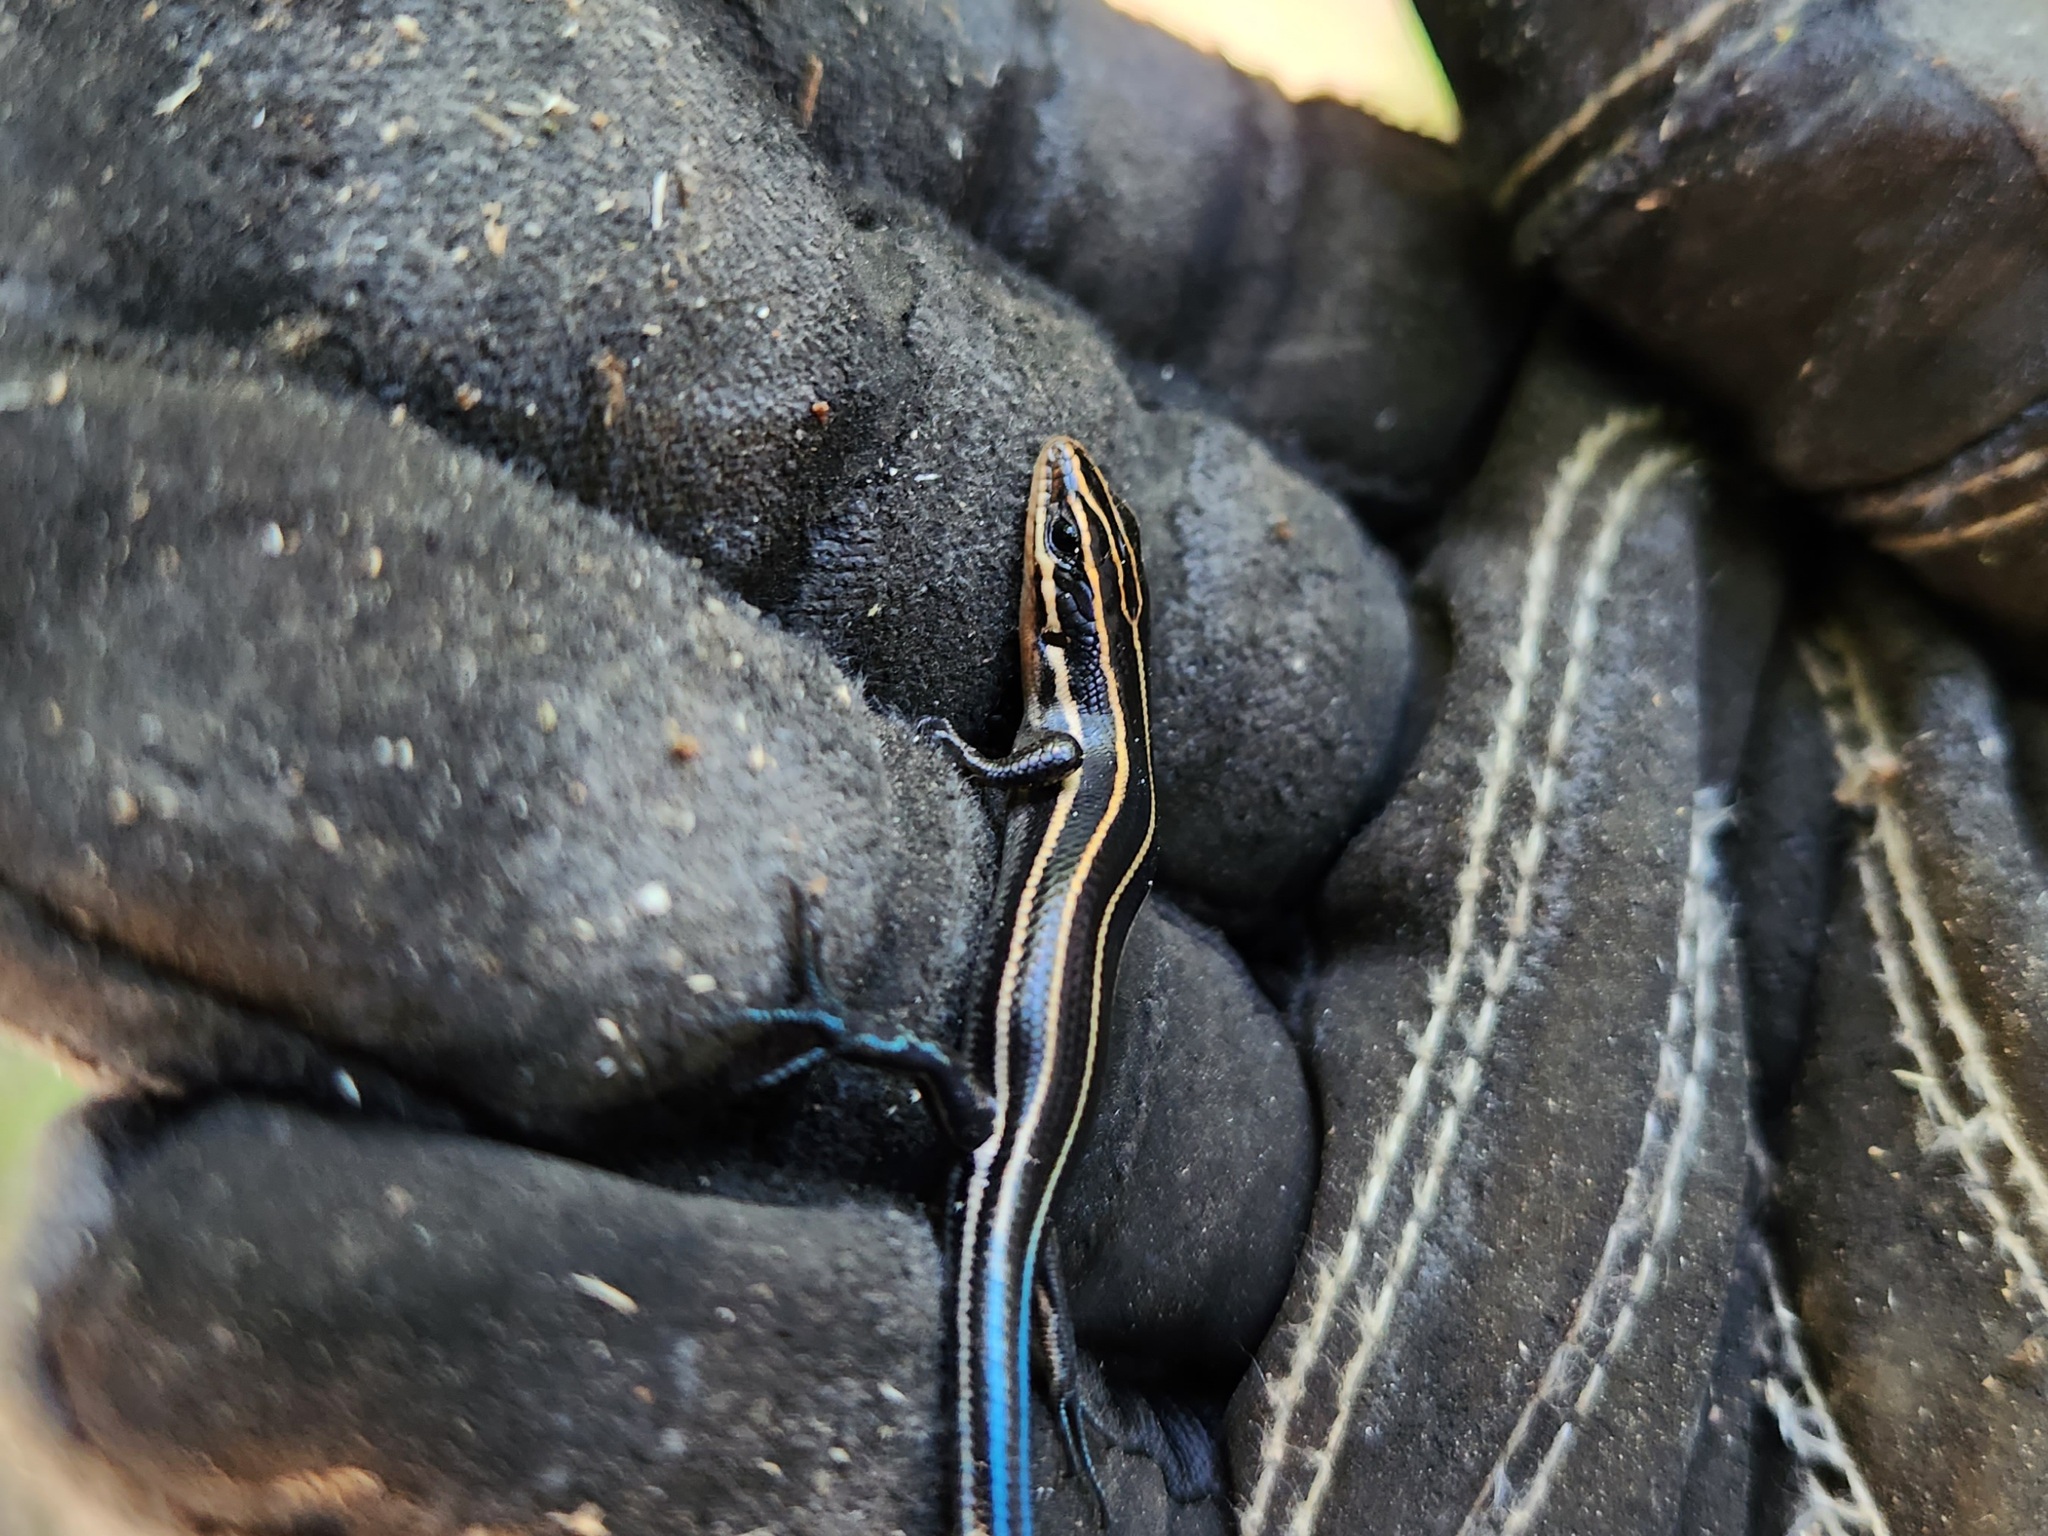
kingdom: Animalia
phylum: Chordata
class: Squamata
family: Scincidae
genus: Plestiodon
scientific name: Plestiodon fasciatus
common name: Five-lined skink
